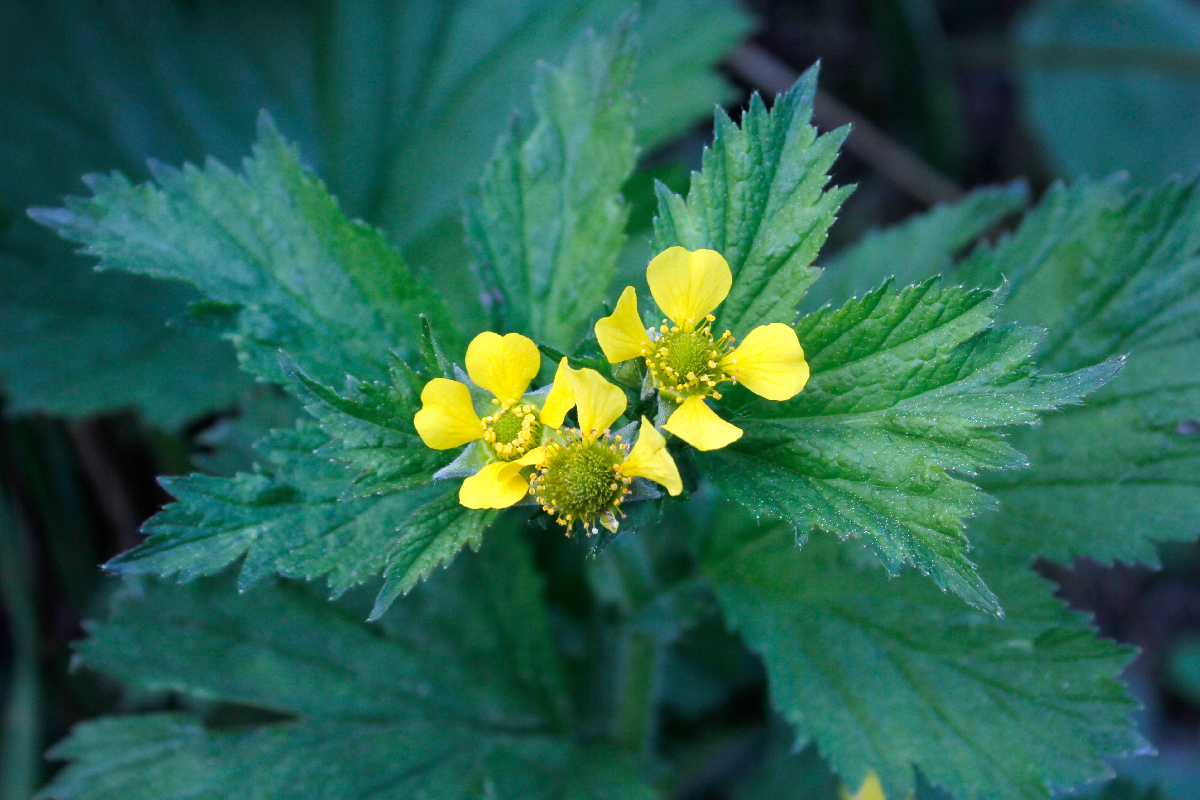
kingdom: Plantae
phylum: Tracheophyta
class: Magnoliopsida
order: Rosales
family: Rosaceae
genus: Geum
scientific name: Geum macrophyllum
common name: Large-leaved avens
